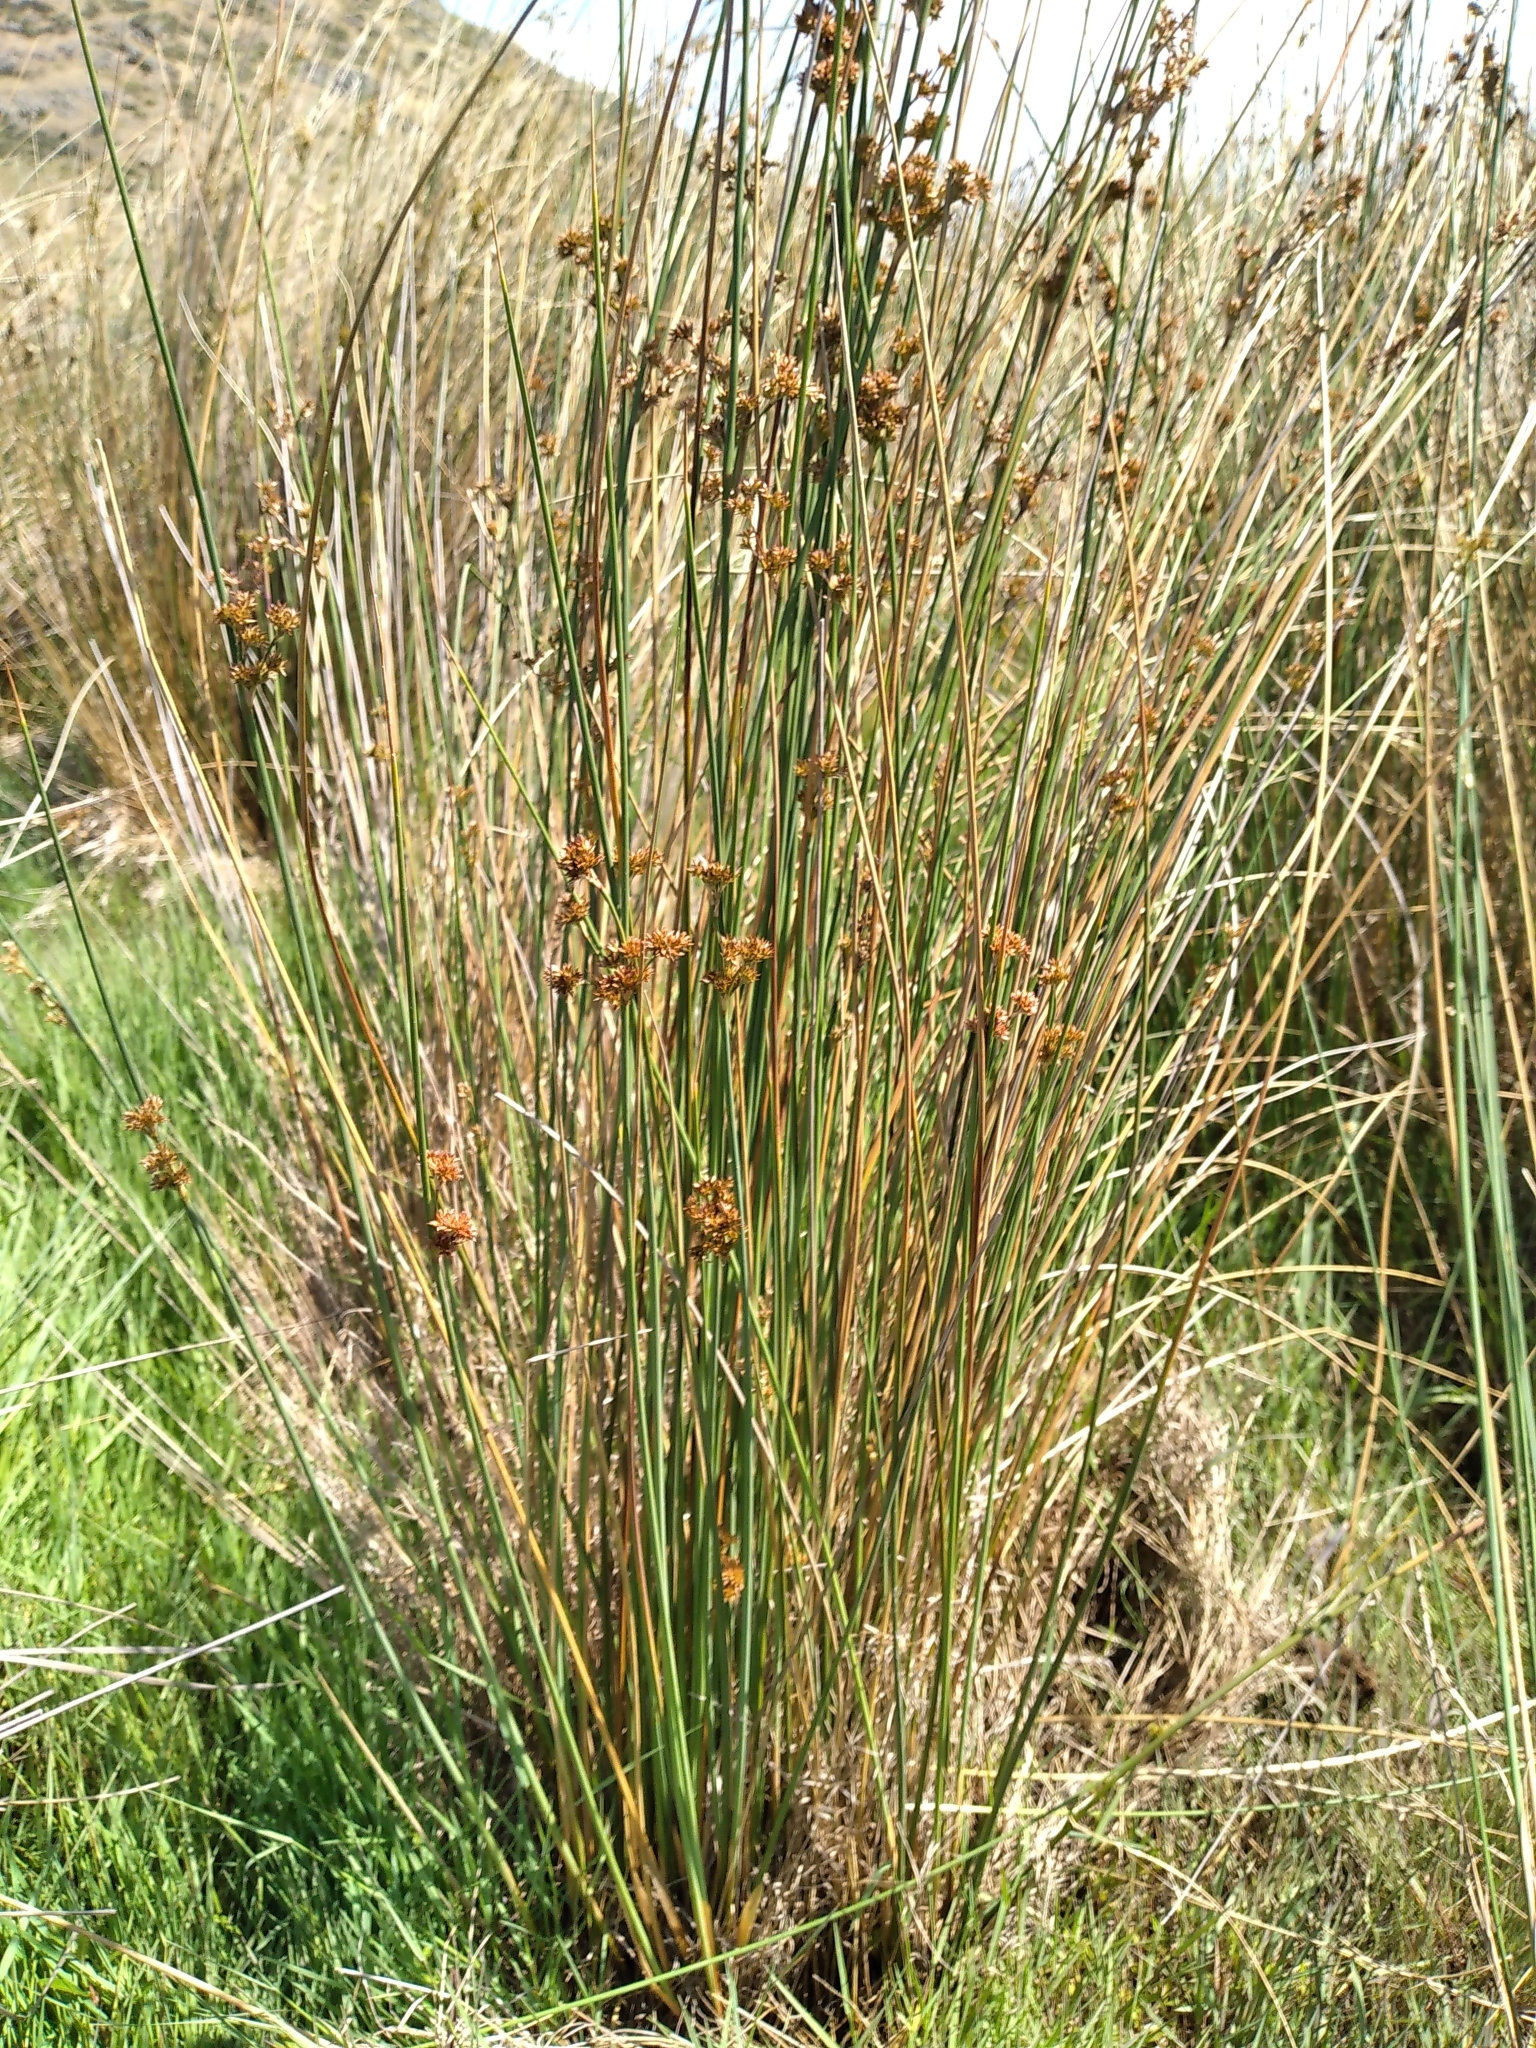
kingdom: Plantae
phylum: Tracheophyta
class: Liliopsida
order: Poales
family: Juncaceae
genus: Juncus
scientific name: Juncus australis
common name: Austral rush
